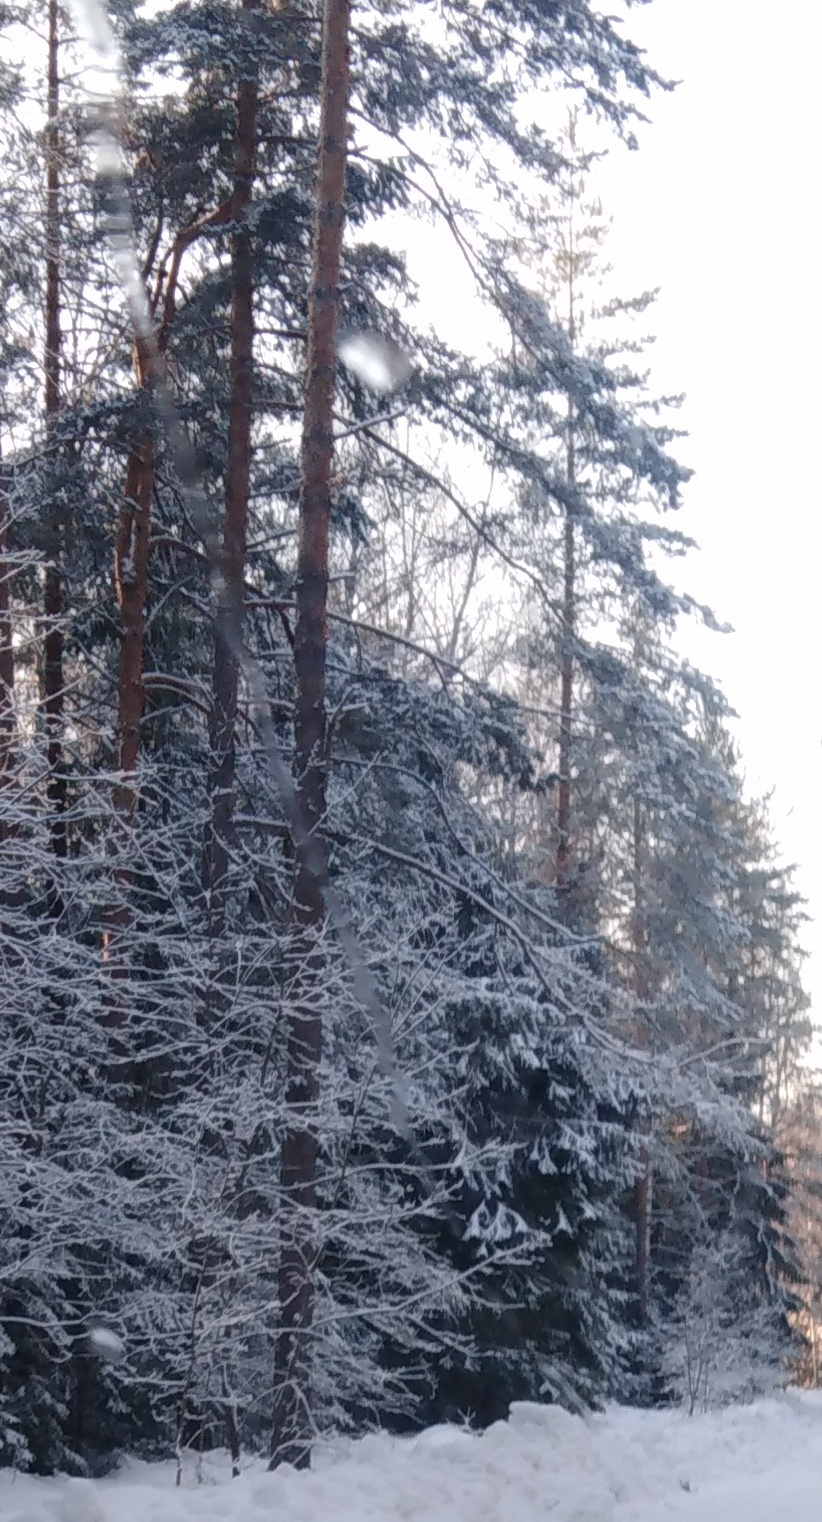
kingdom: Plantae
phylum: Tracheophyta
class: Pinopsida
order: Pinales
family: Pinaceae
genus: Pinus
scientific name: Pinus sylvestris
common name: Scots pine
